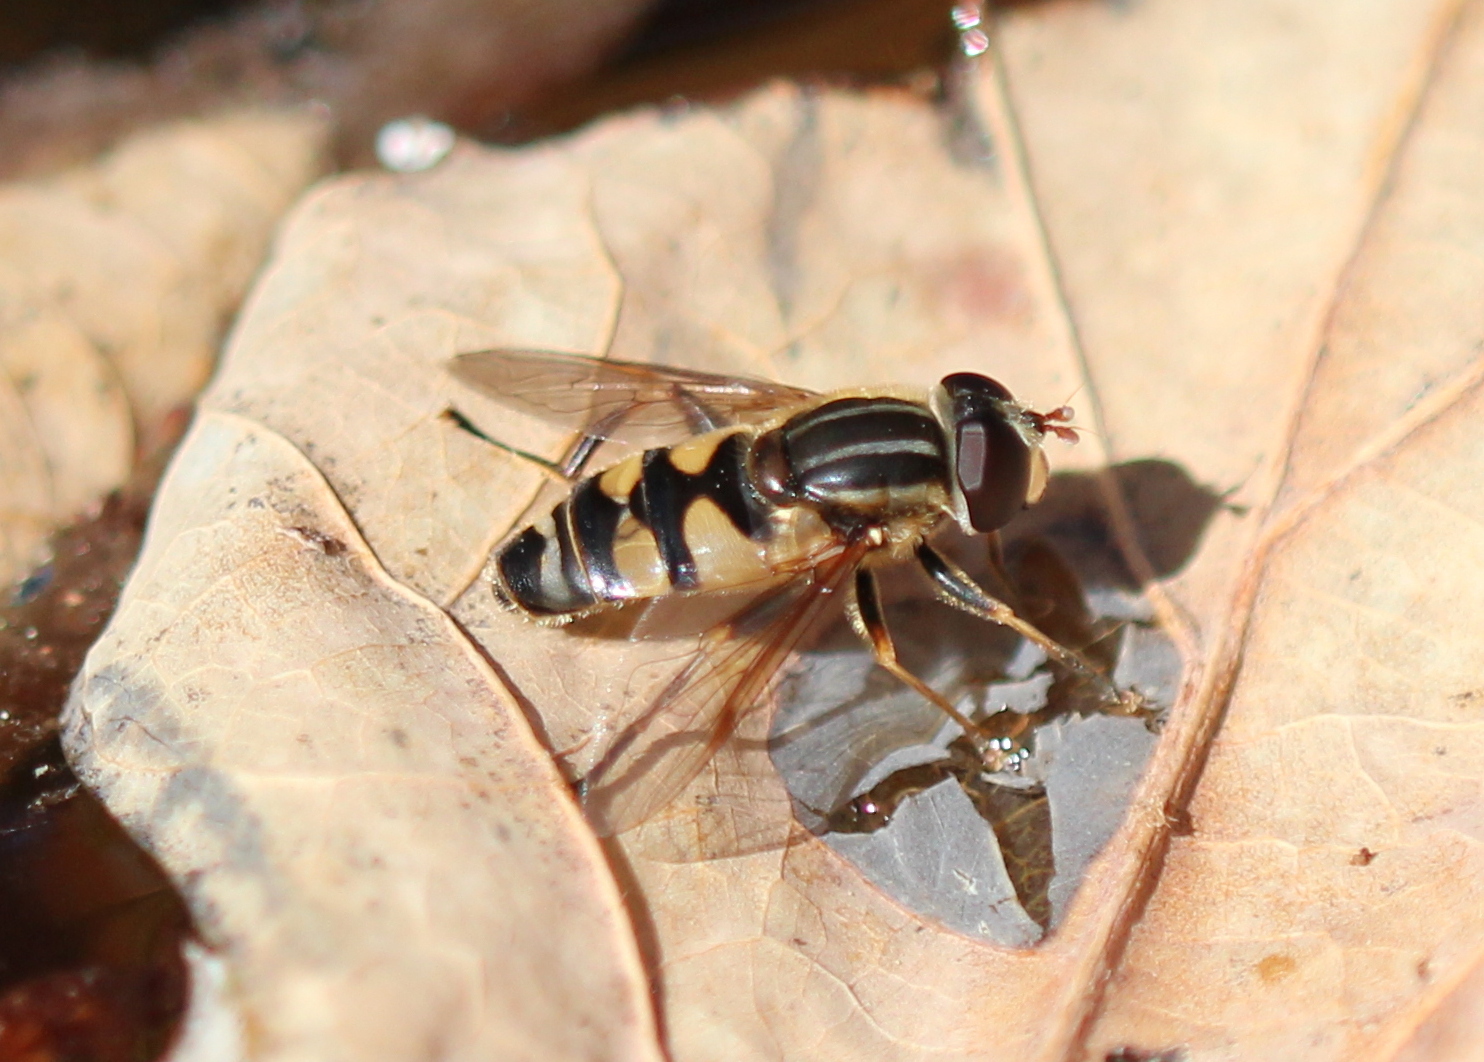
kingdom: Animalia
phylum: Arthropoda
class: Insecta
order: Diptera
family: Syrphidae
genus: Helophilus
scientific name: Helophilus fasciatus
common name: Narrow-headed marsh fly
